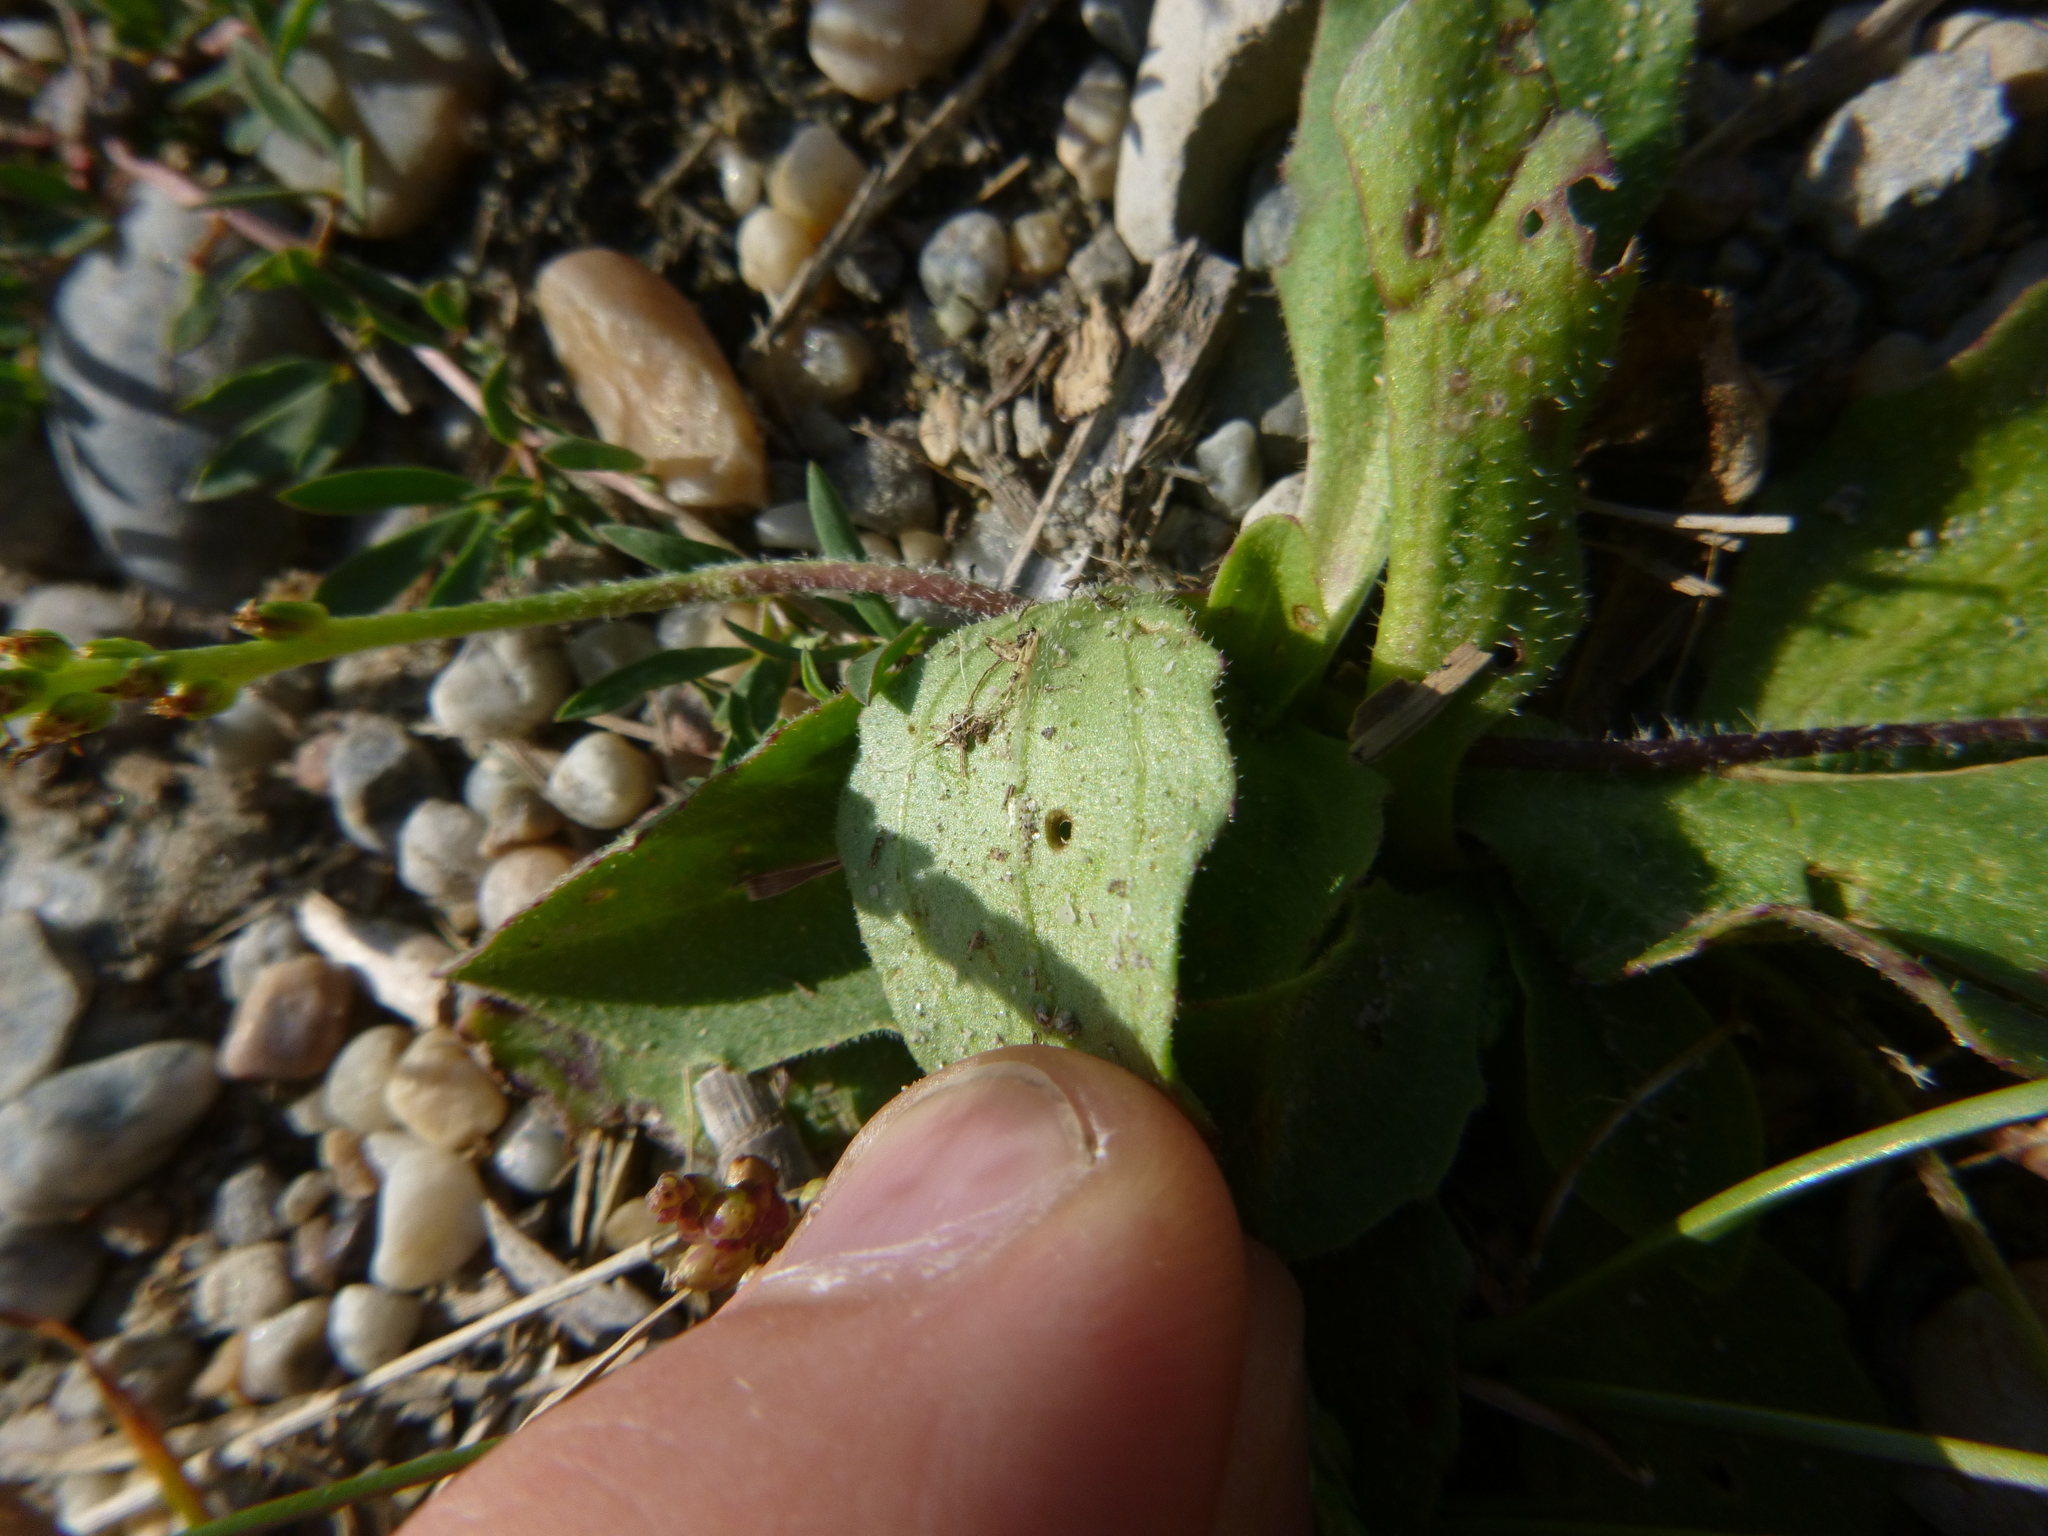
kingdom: Plantae
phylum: Tracheophyta
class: Magnoliopsida
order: Lamiales
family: Plantaginaceae
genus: Plantago
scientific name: Plantago uliginosa
